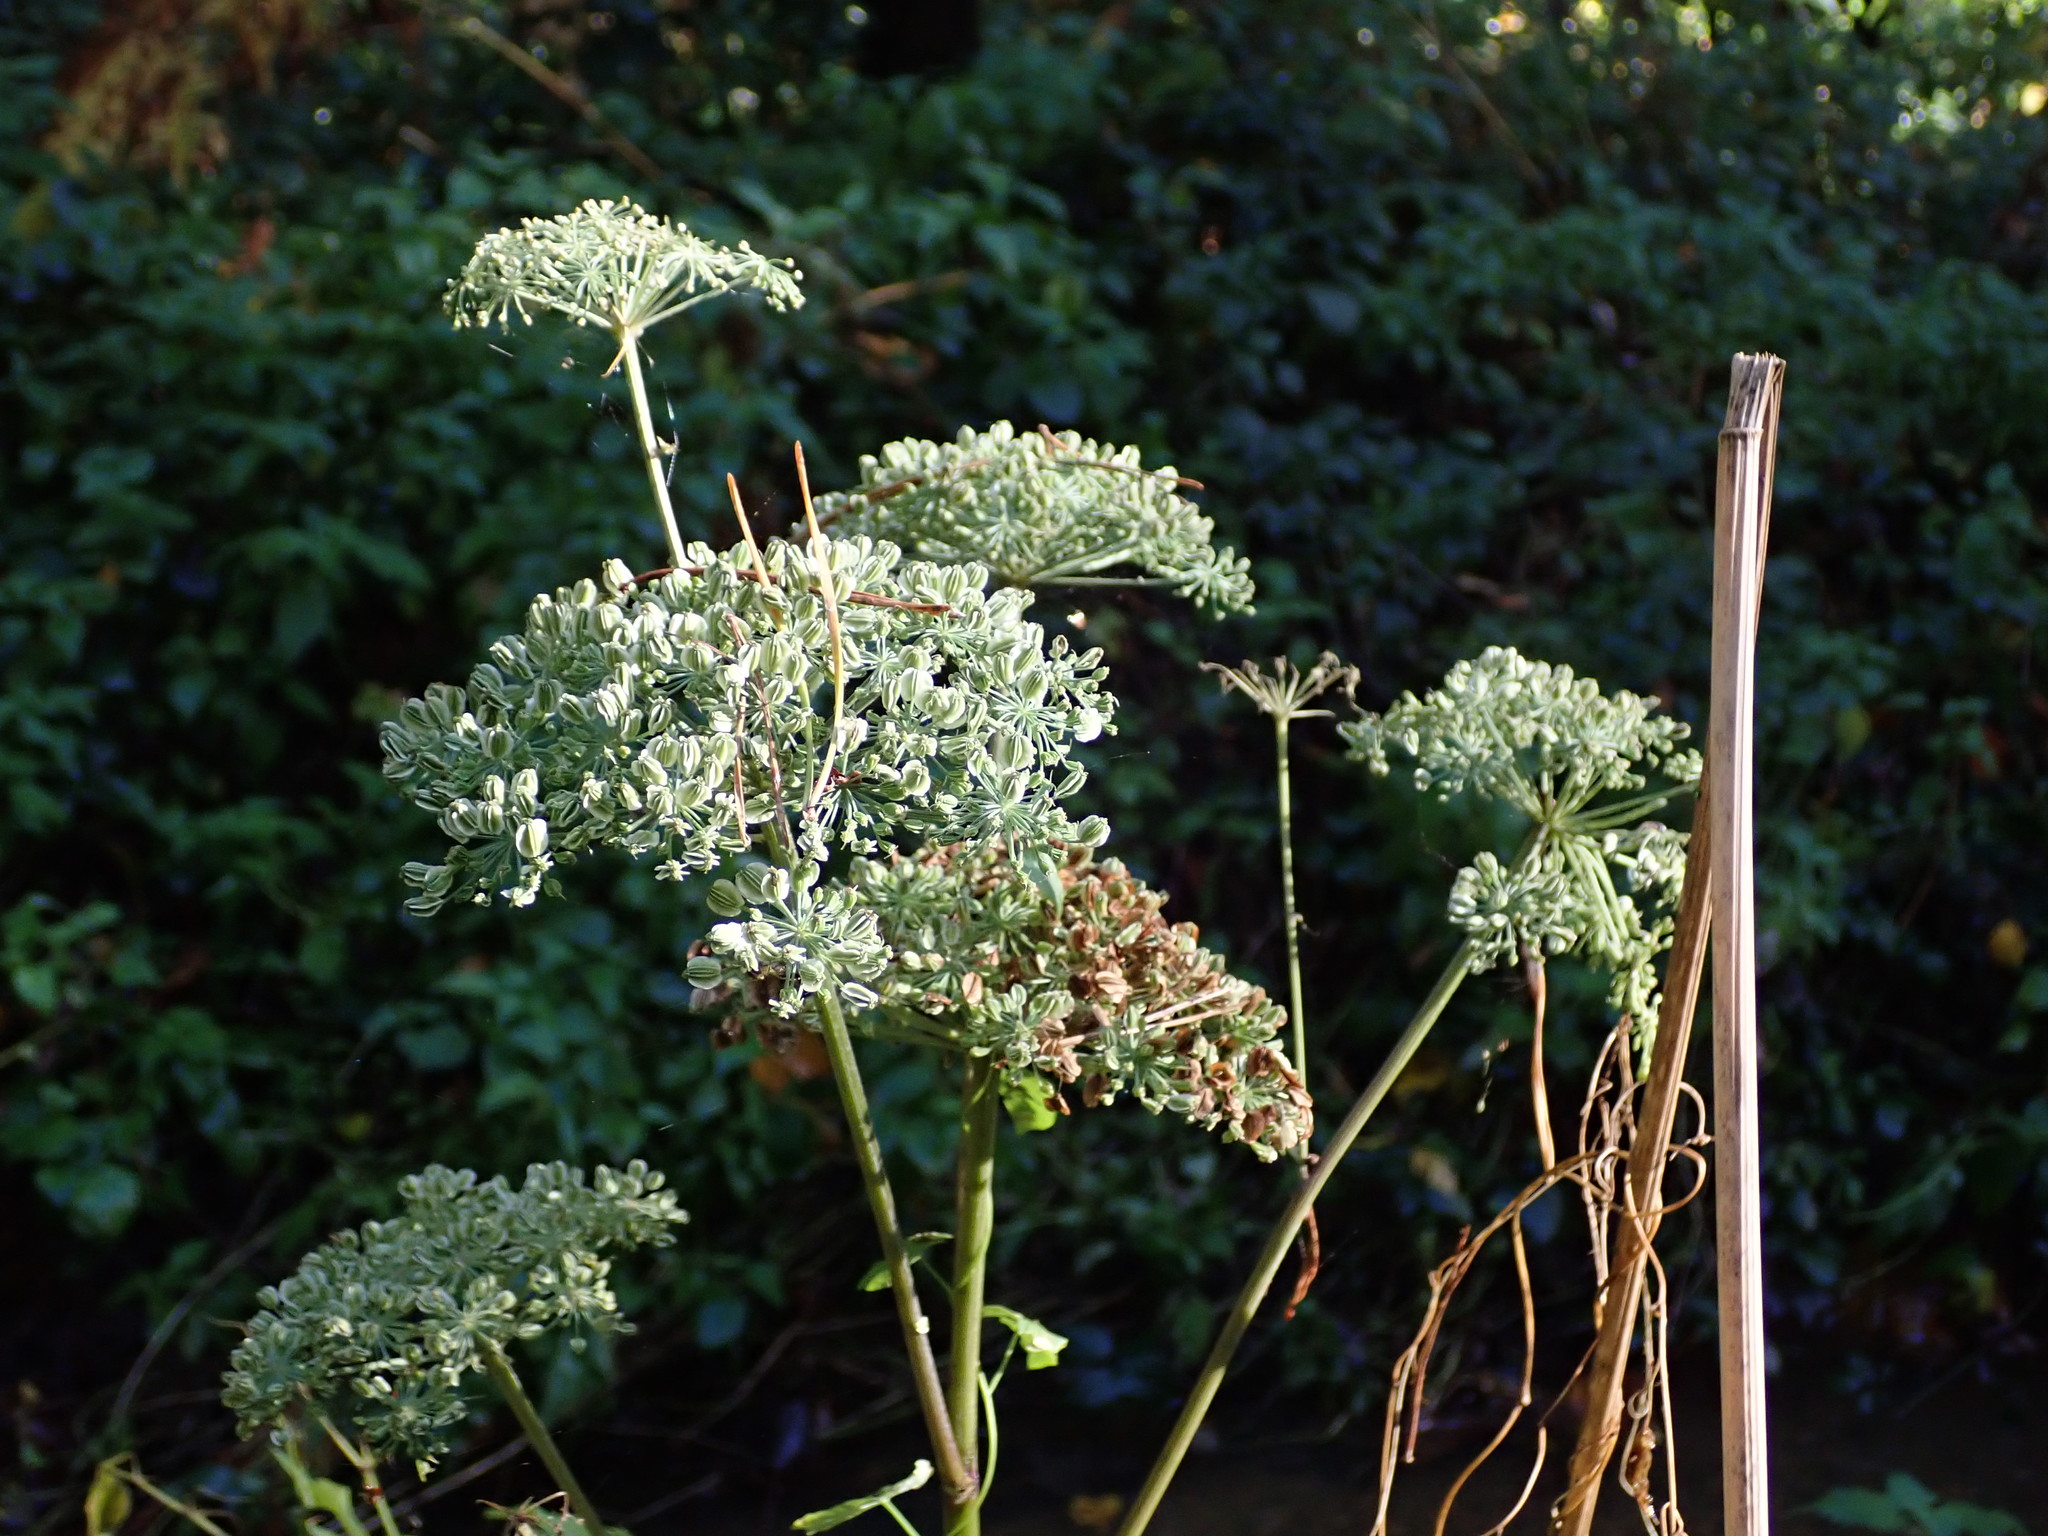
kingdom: Plantae
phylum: Tracheophyta
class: Magnoliopsida
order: Apiales
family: Apiaceae
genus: Angelica
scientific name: Angelica sylvestris
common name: Wild angelica
